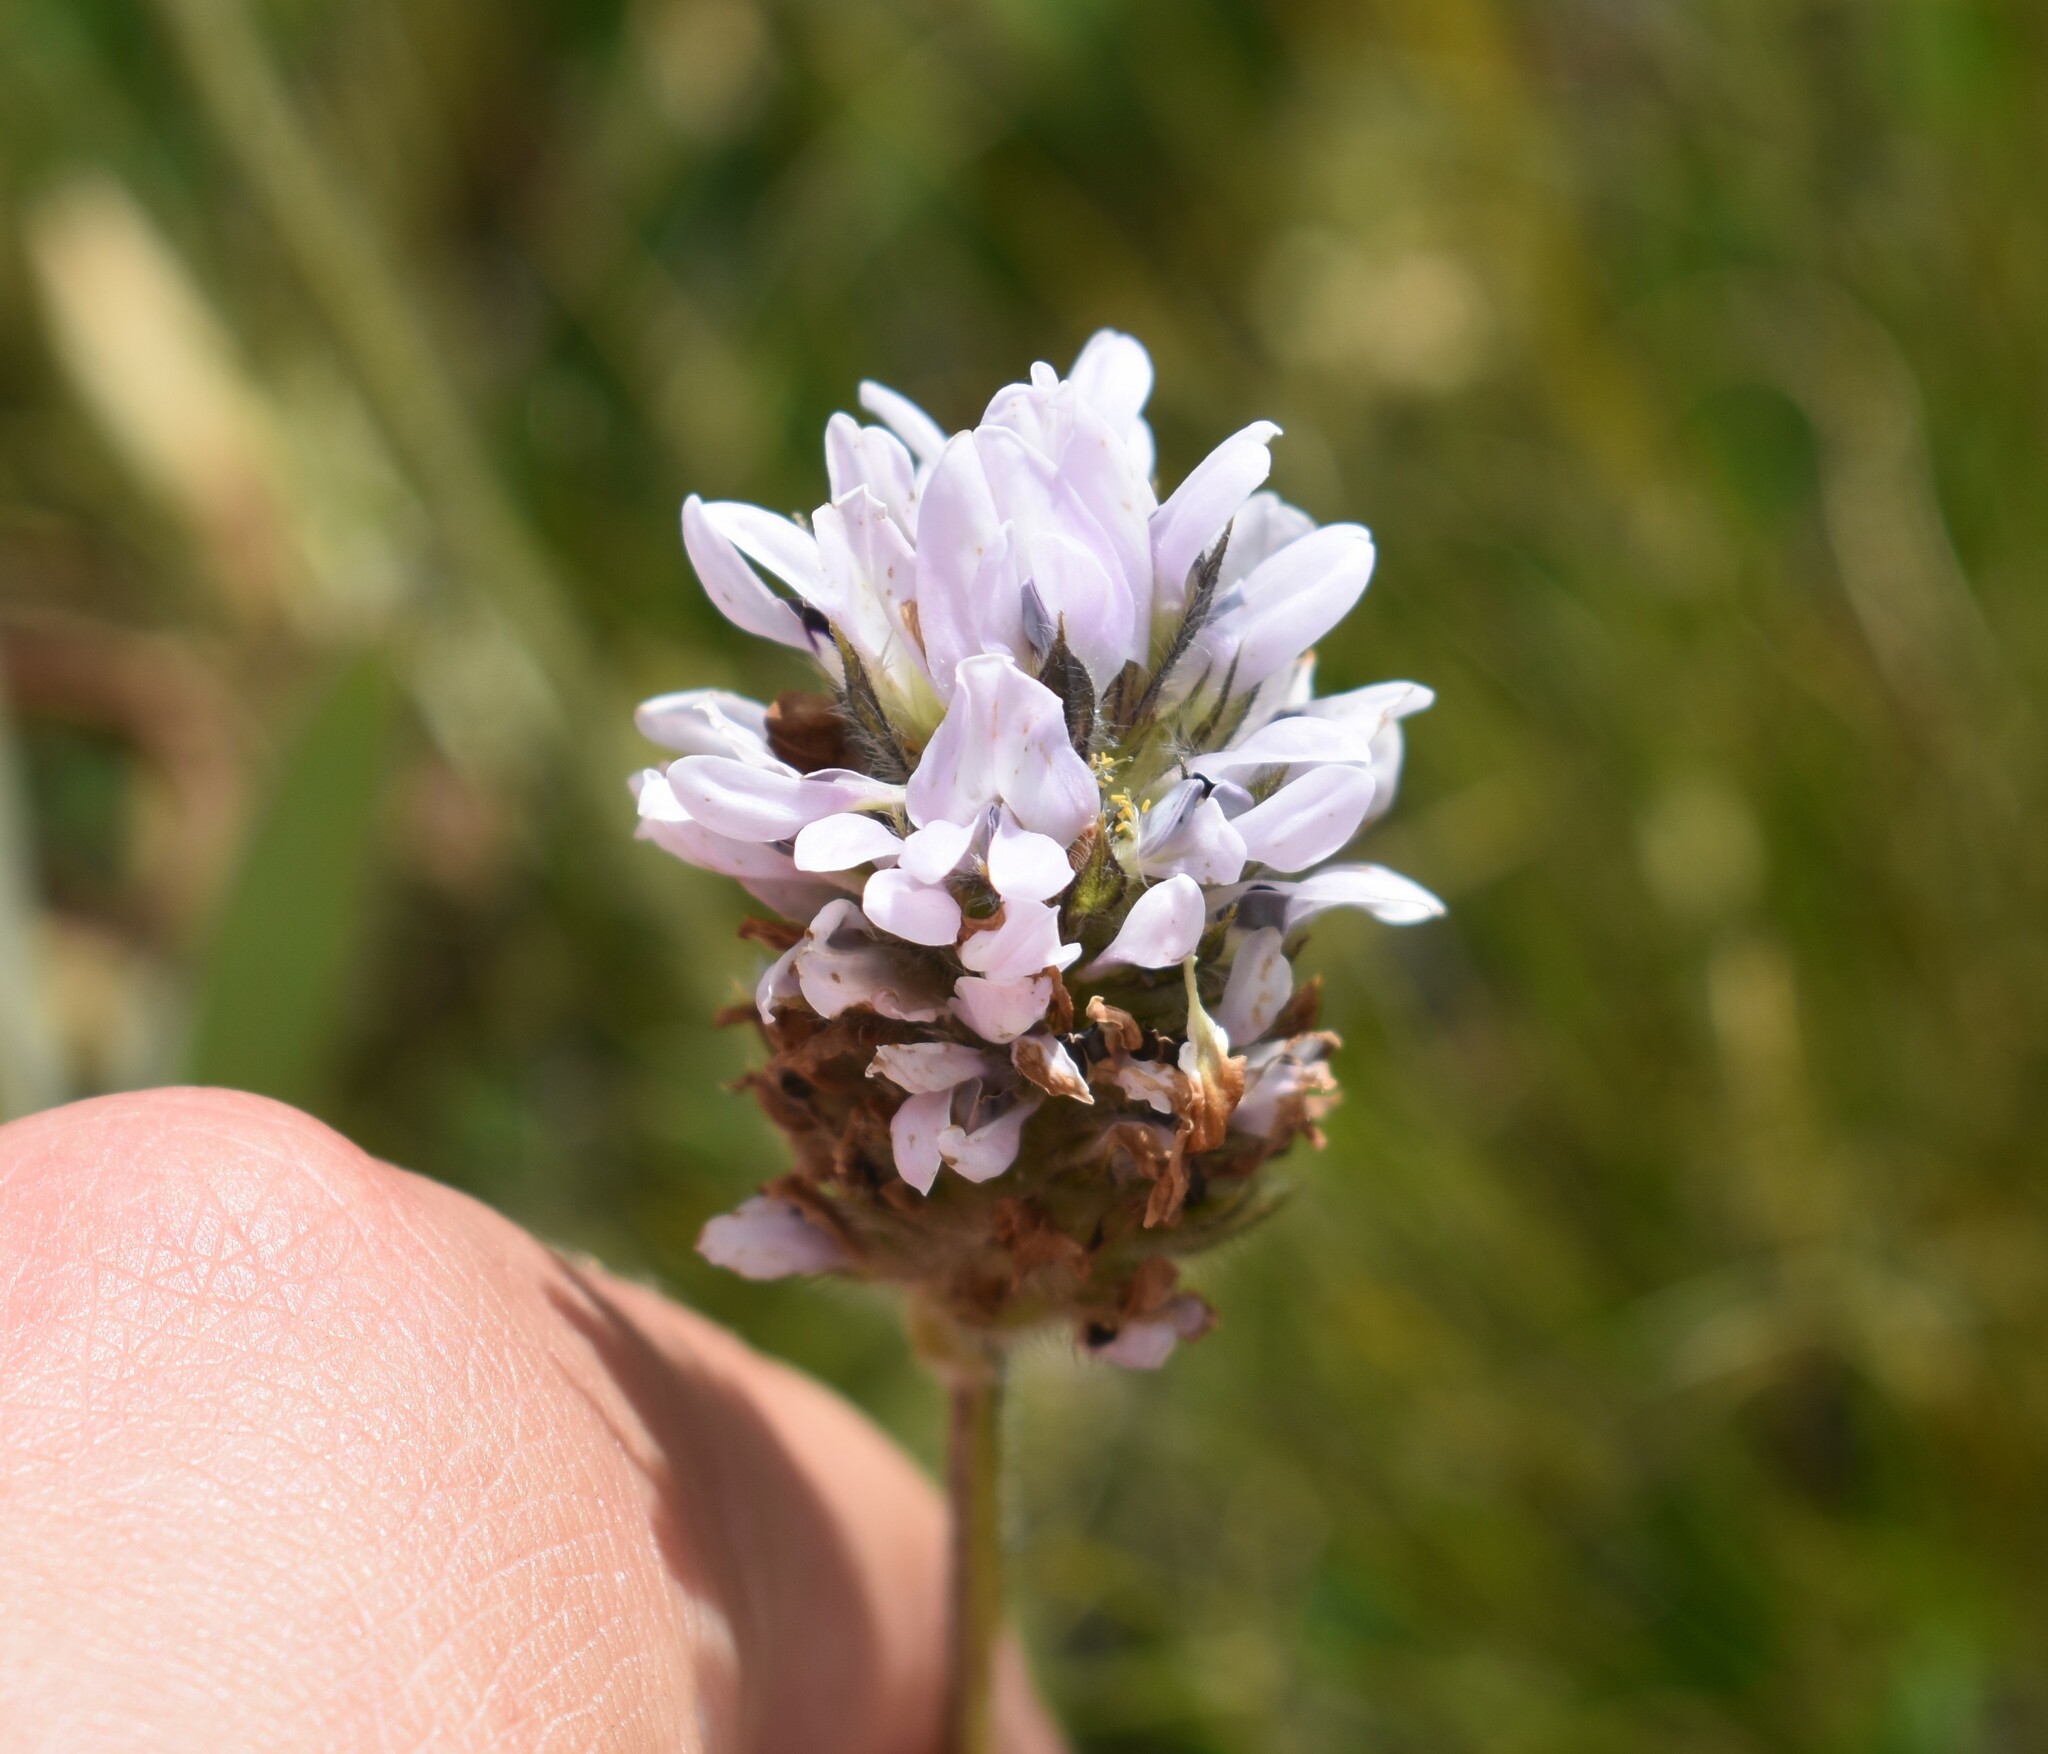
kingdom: Plantae
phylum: Tracheophyta
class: Magnoliopsida
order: Fabales
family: Fabaceae
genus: Psoralea
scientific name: Psoralea zeyheri
